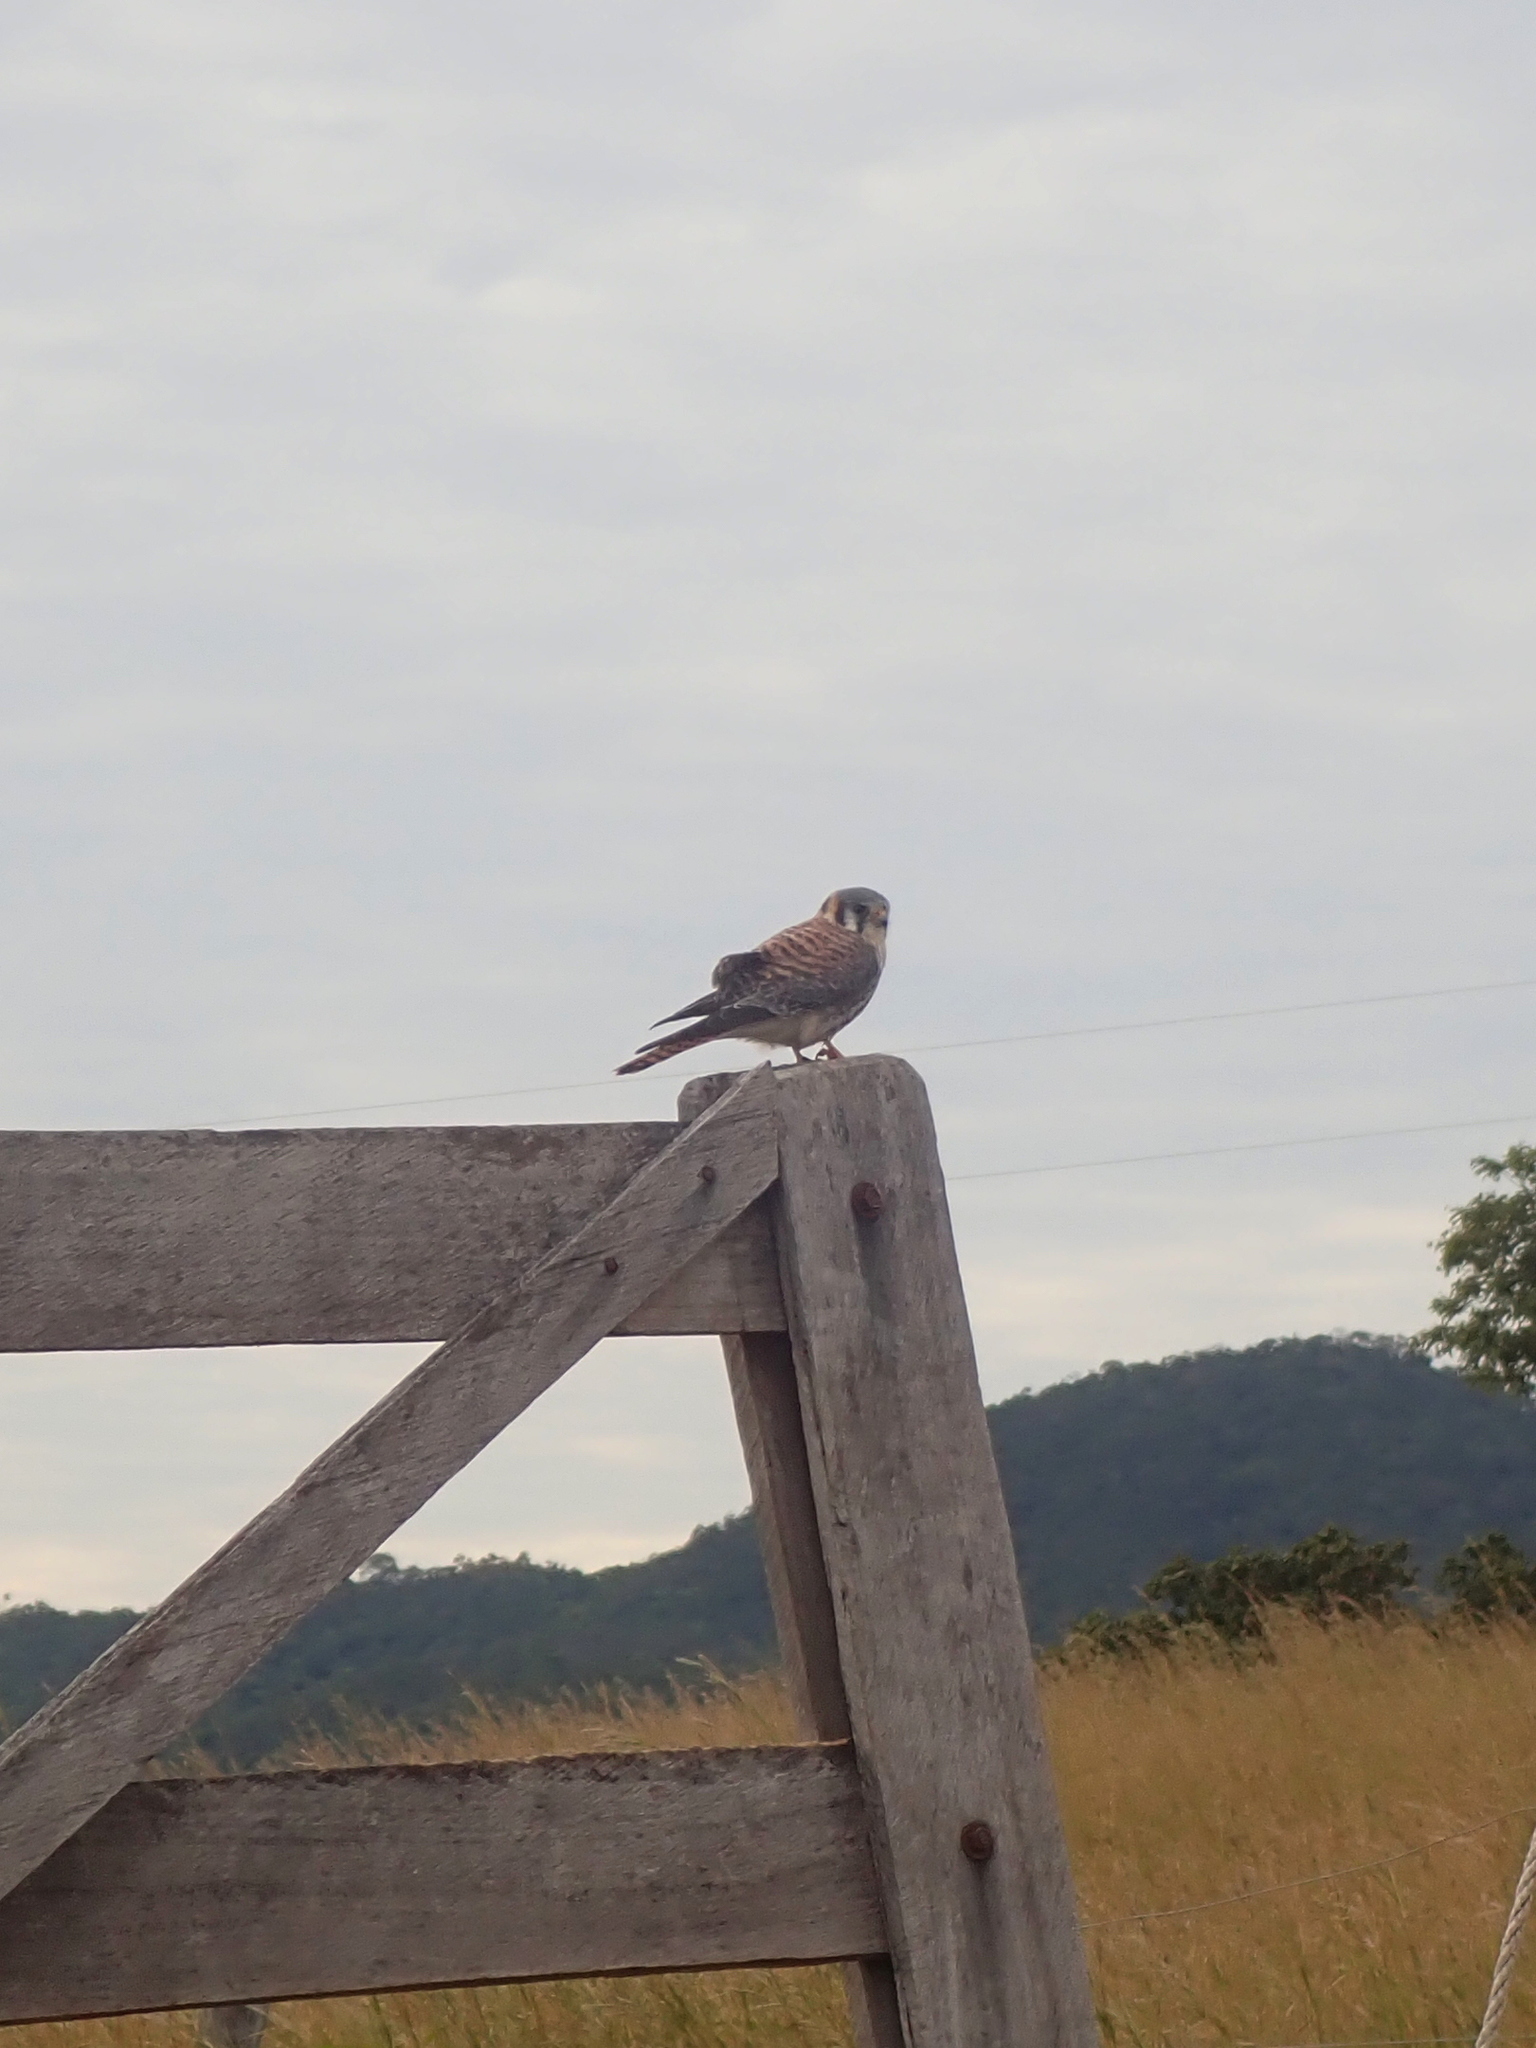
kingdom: Animalia
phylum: Chordata
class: Aves
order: Falconiformes
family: Falconidae
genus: Falco
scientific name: Falco sparverius
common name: American kestrel
